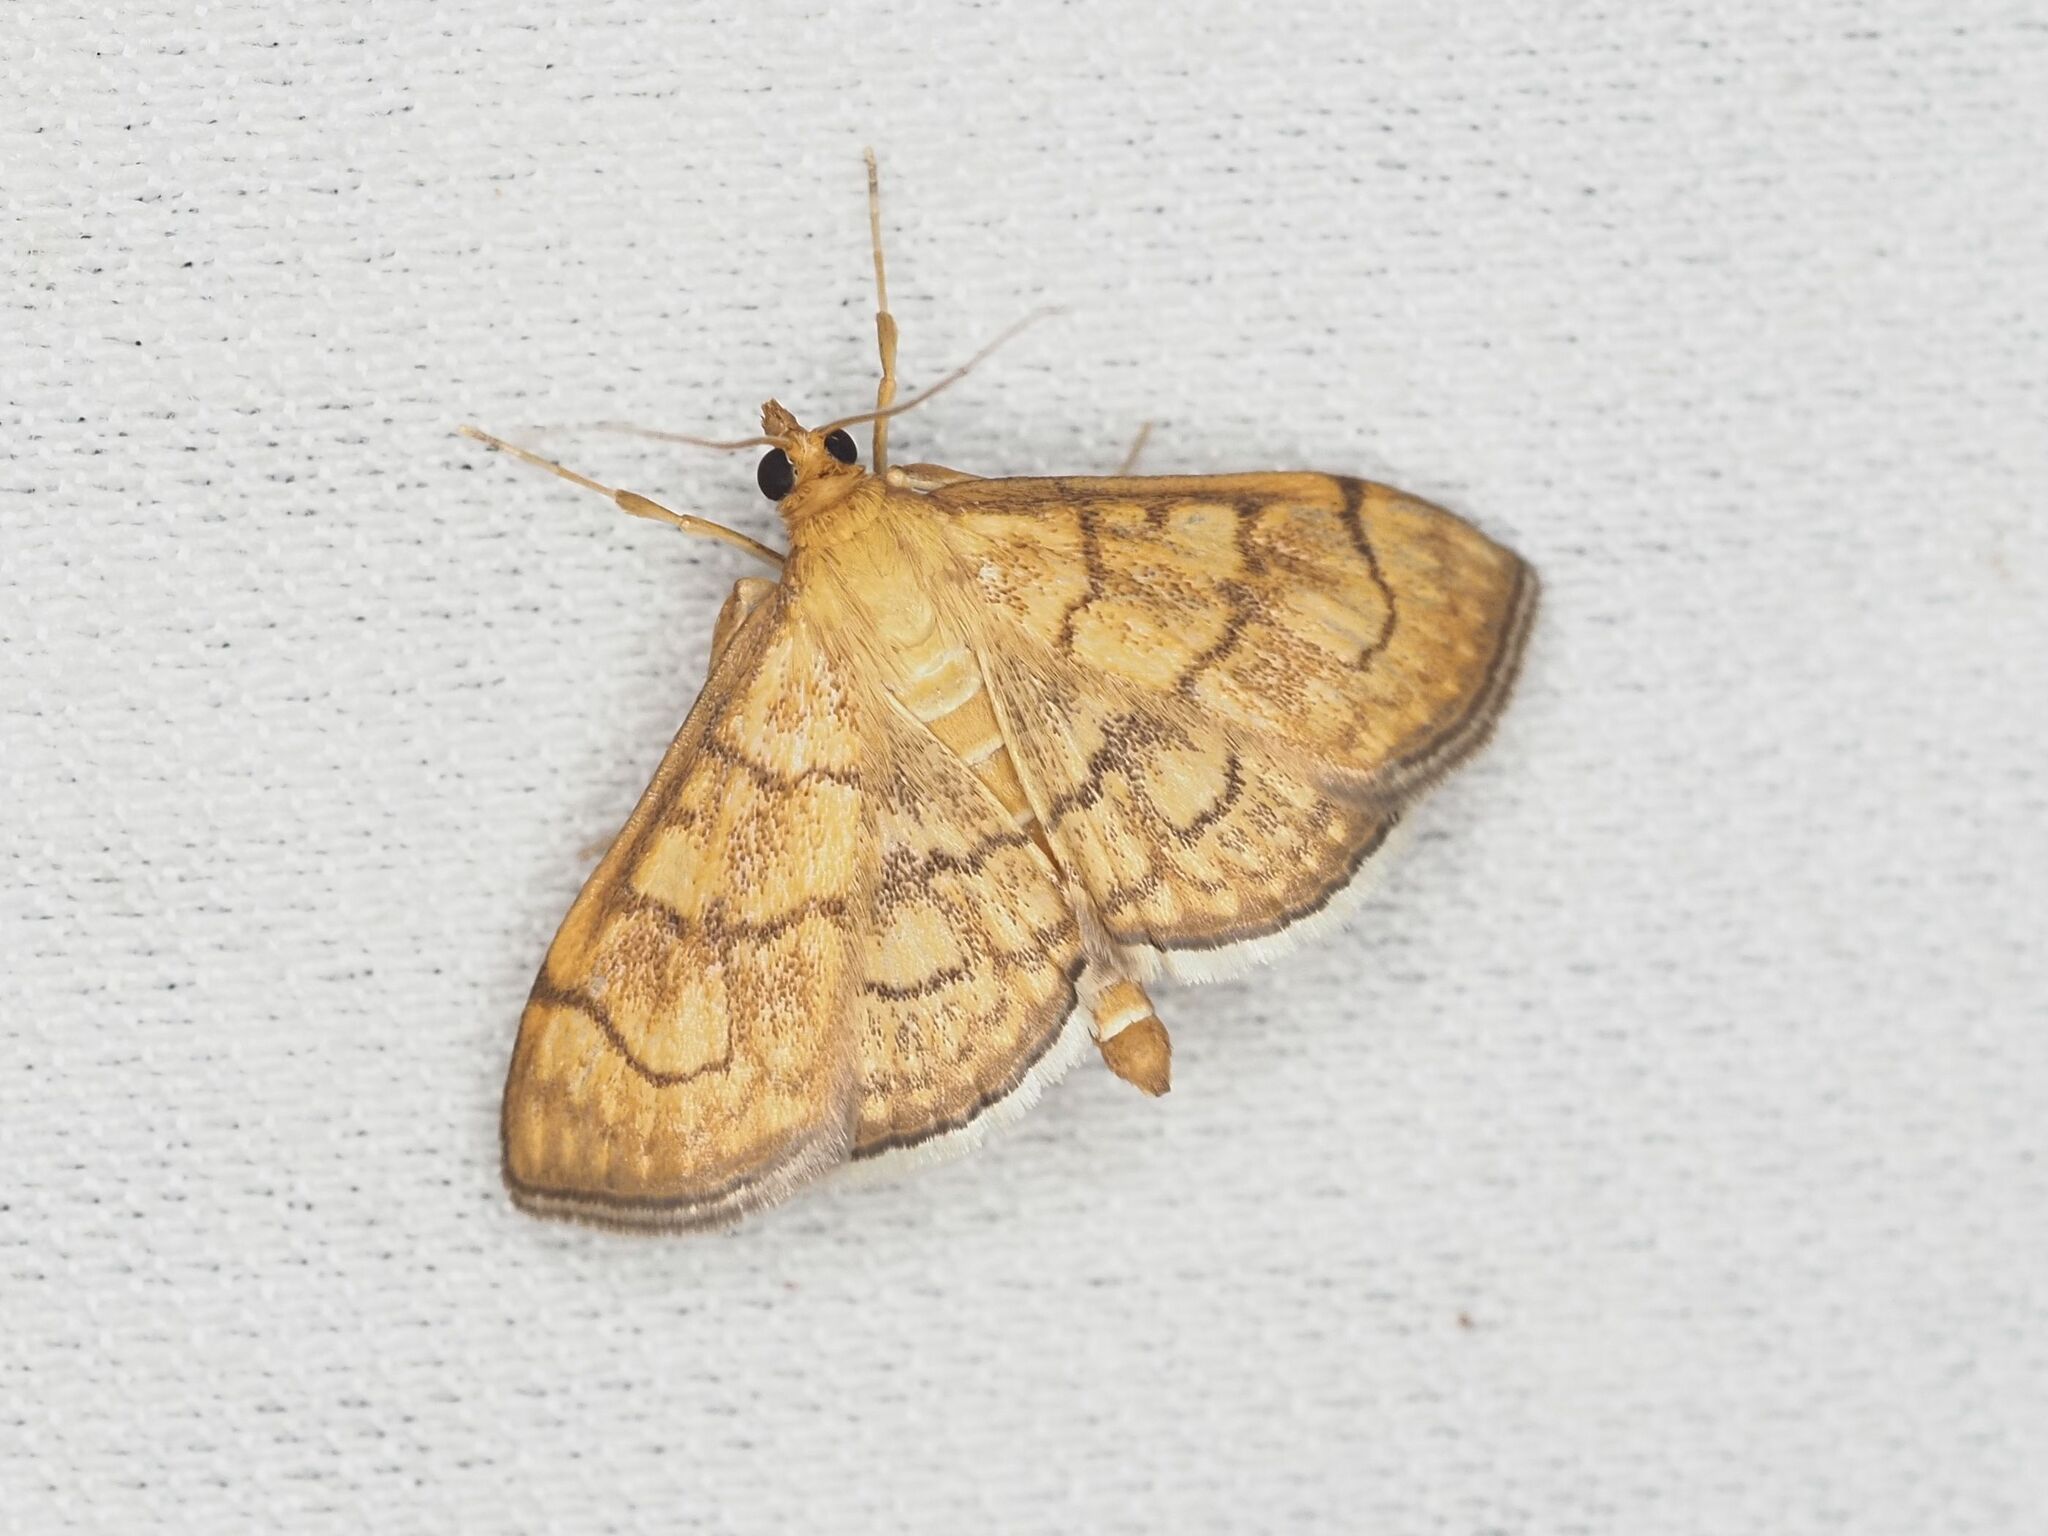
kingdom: Animalia
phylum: Arthropoda
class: Insecta
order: Lepidoptera
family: Crambidae
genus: Anania
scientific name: Anania verbascalis
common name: Golden pearl
